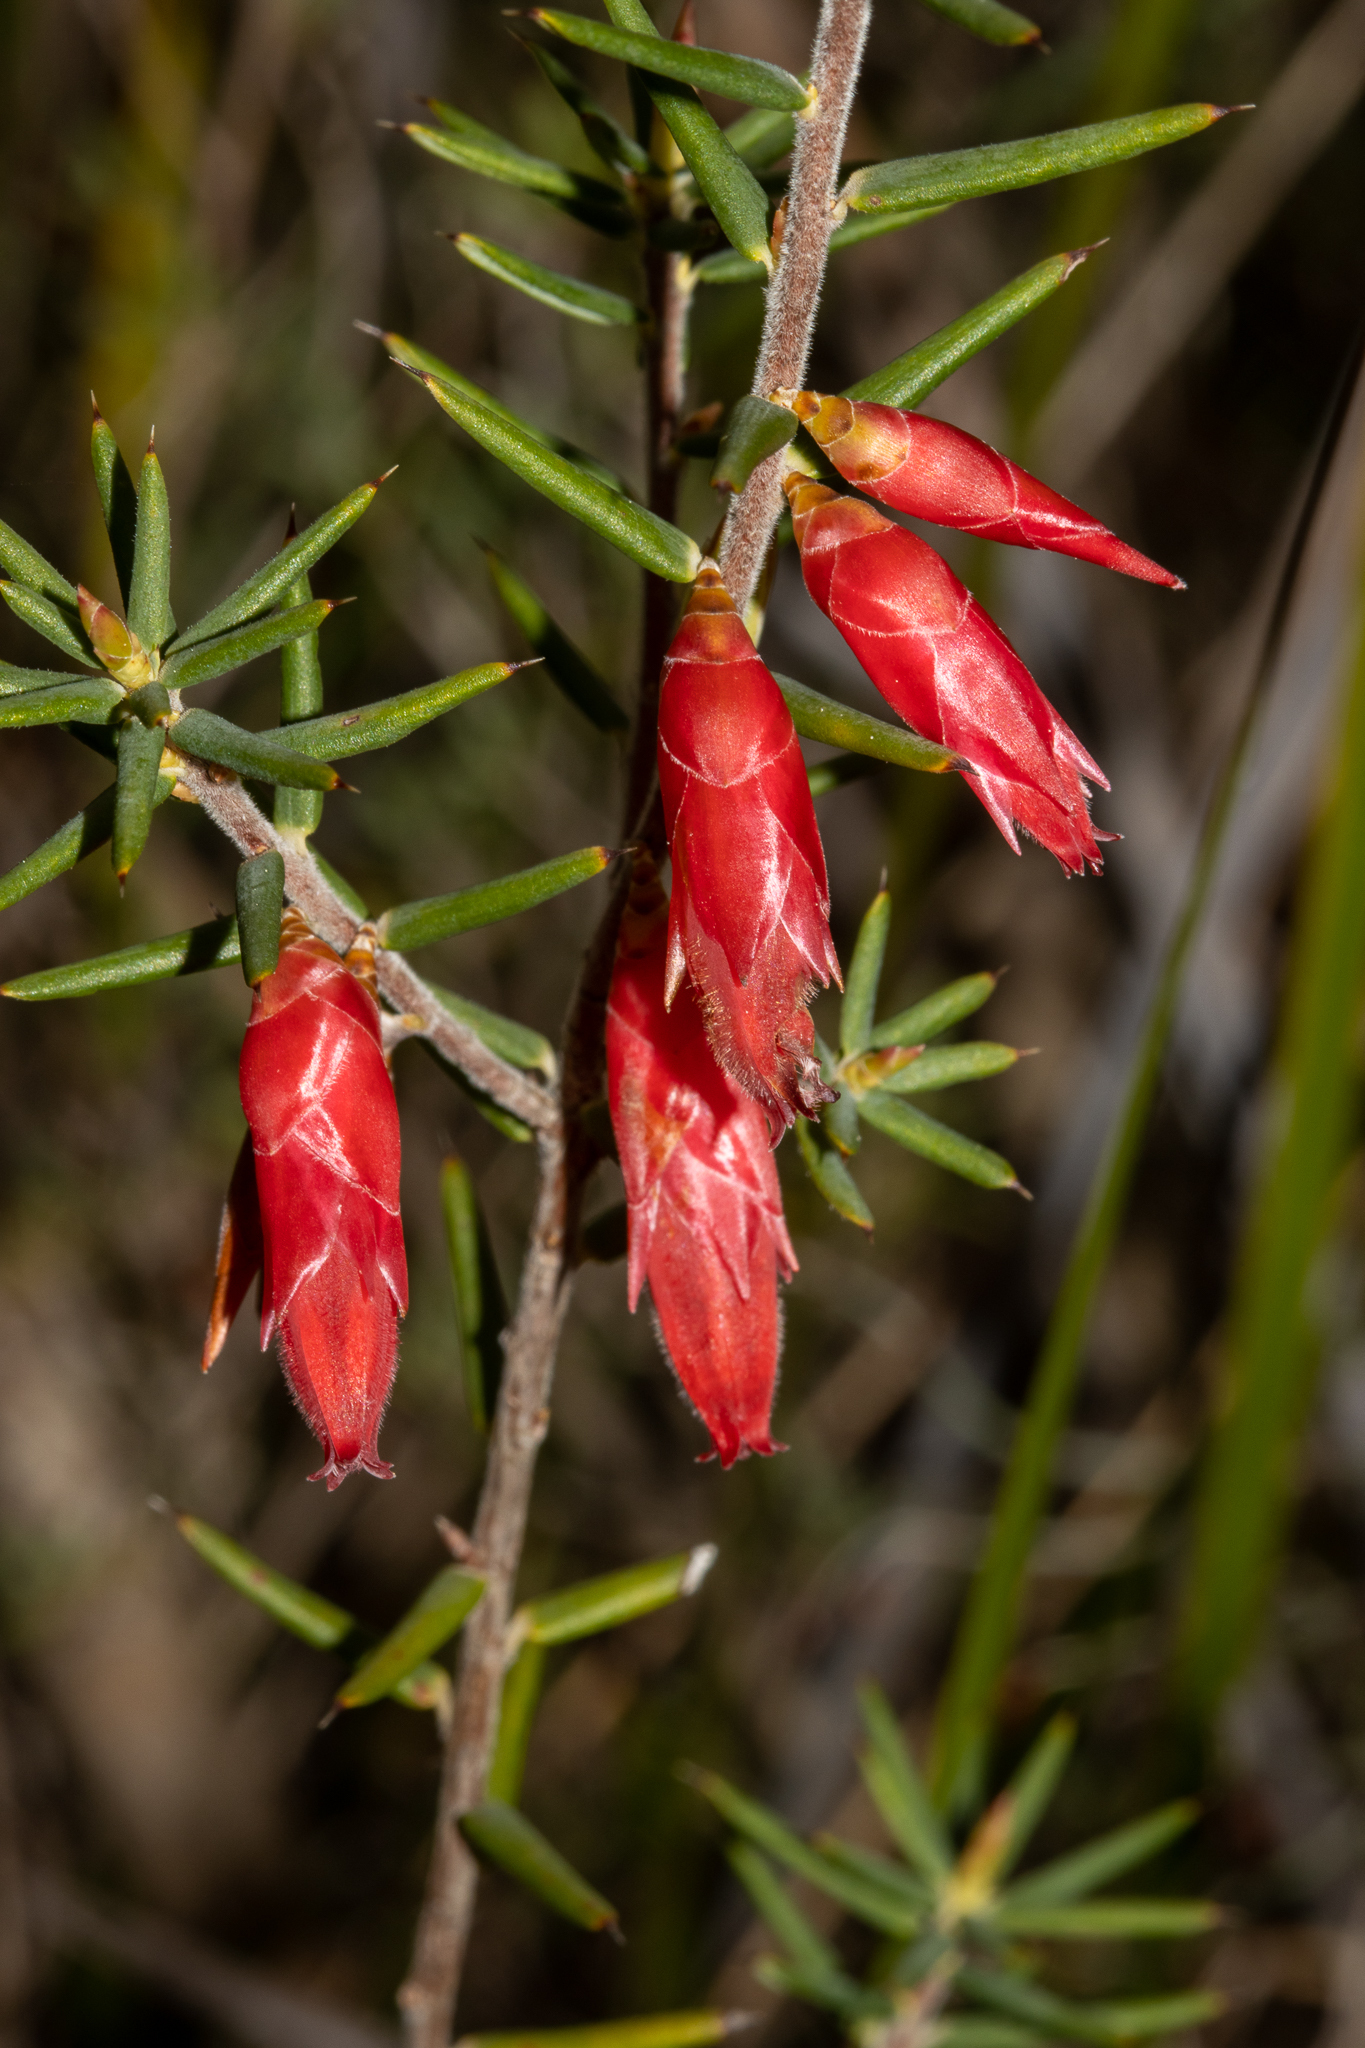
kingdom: Plantae
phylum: Tracheophyta
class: Magnoliopsida
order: Ericales
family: Ericaceae
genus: Stenanthera
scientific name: Stenanthera conostephioides
